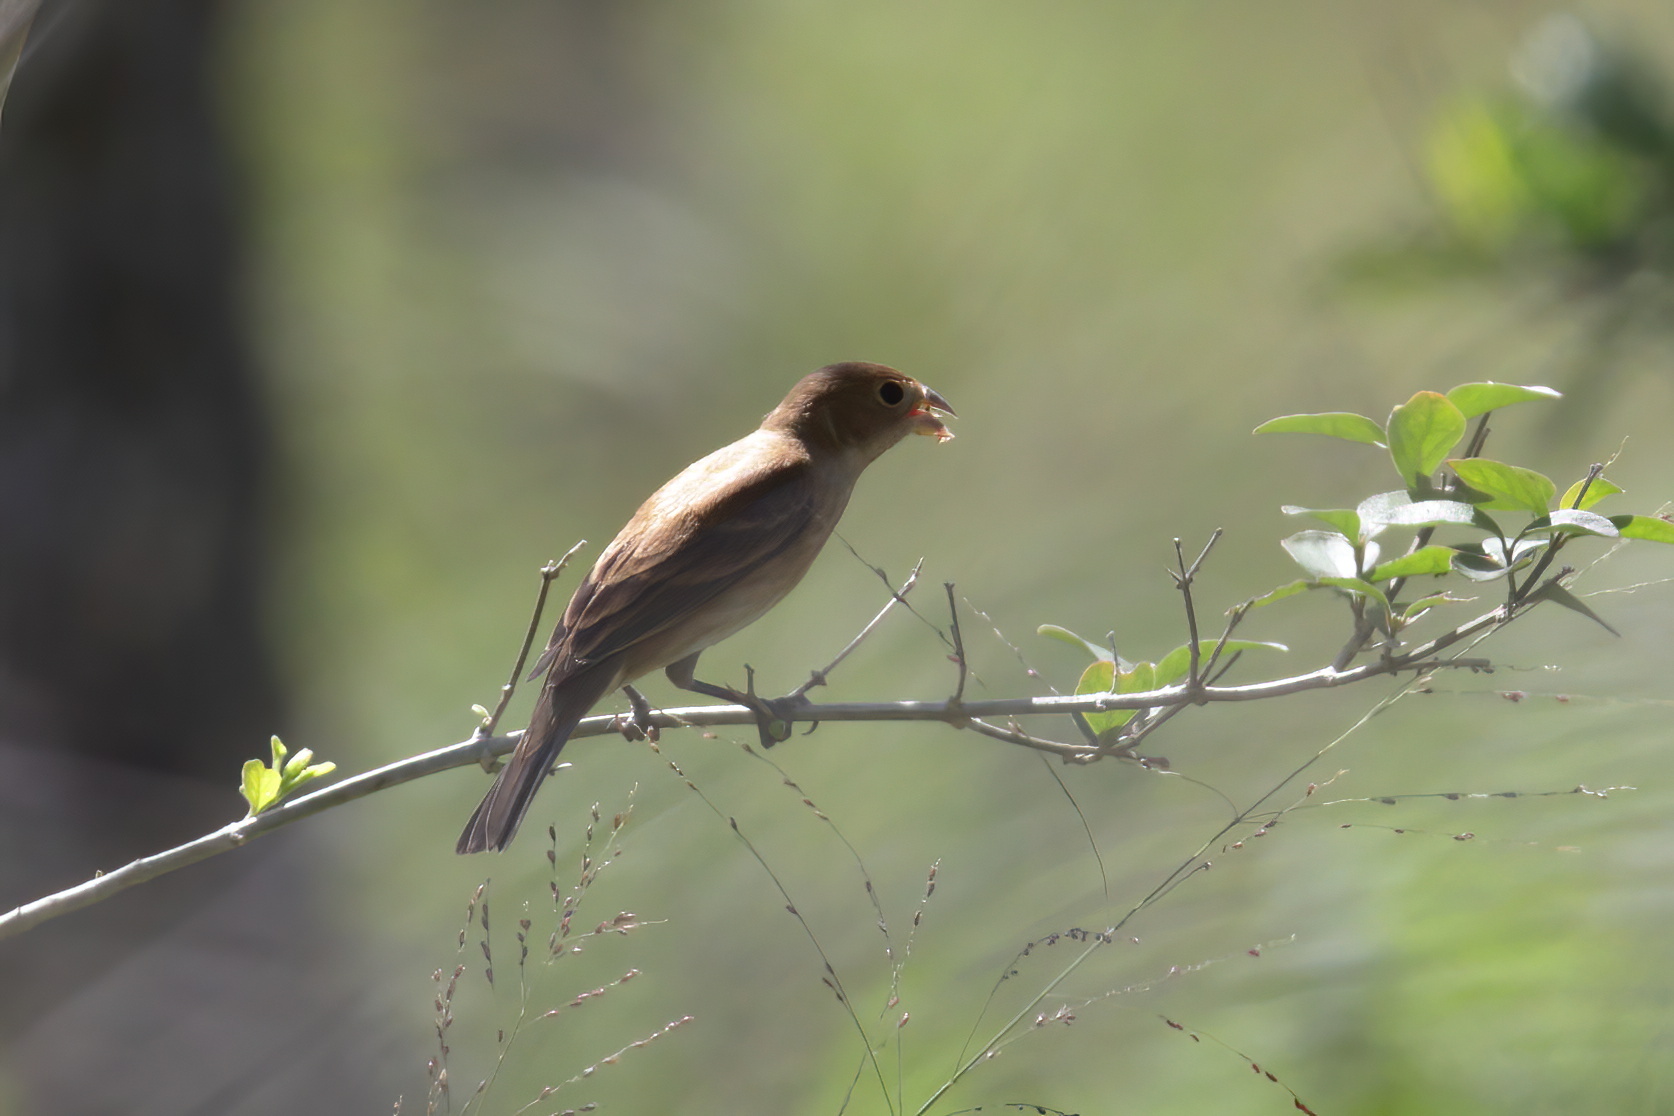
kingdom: Animalia
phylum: Chordata
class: Aves
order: Passeriformes
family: Cardinalidae
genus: Passerina
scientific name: Passerina cyanea
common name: Indigo bunting
